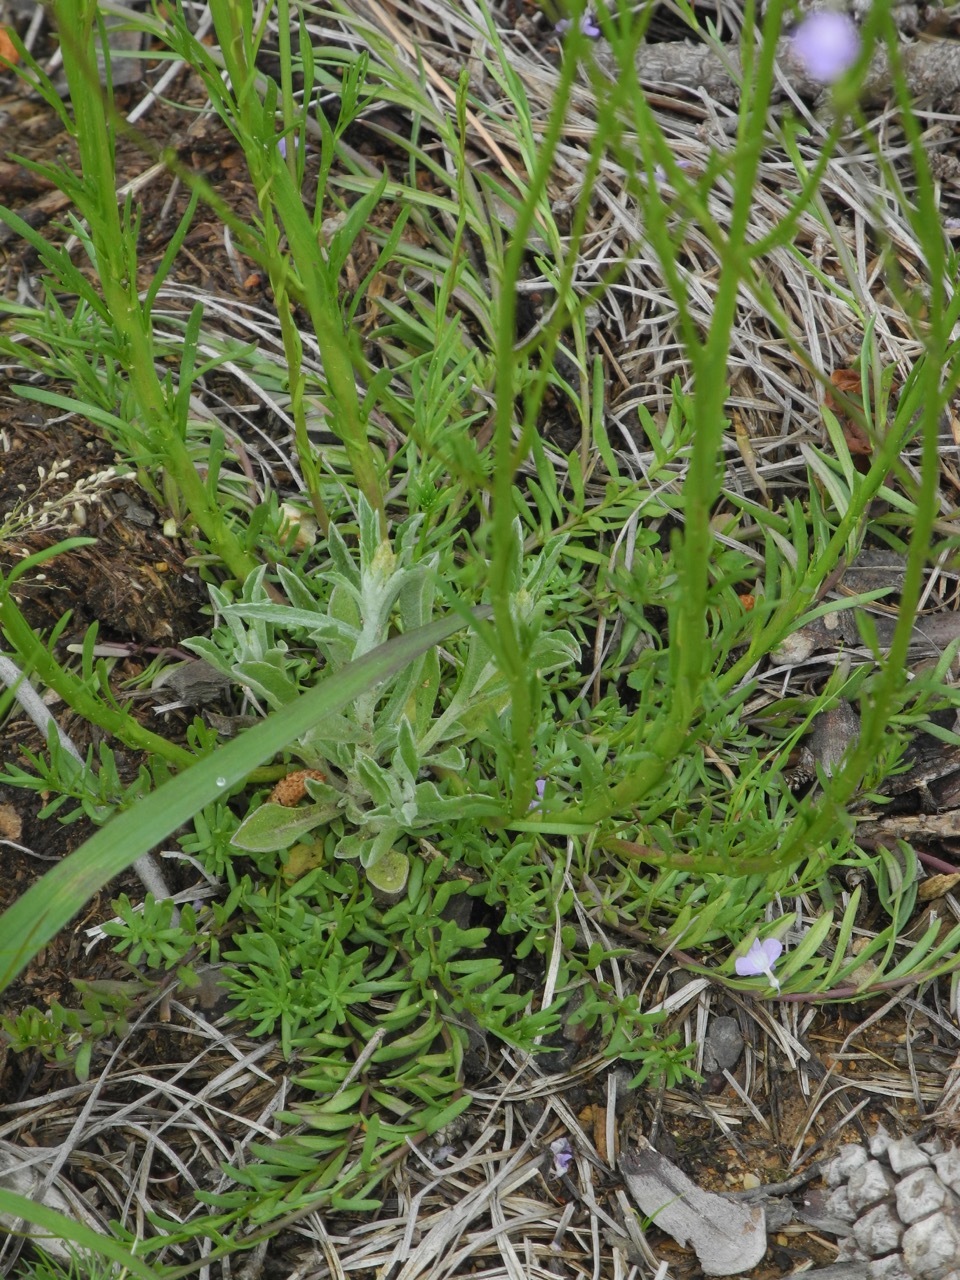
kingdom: Plantae
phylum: Tracheophyta
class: Magnoliopsida
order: Lamiales
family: Plantaginaceae
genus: Nuttallanthus
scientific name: Nuttallanthus canadensis
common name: Blue toadflax
